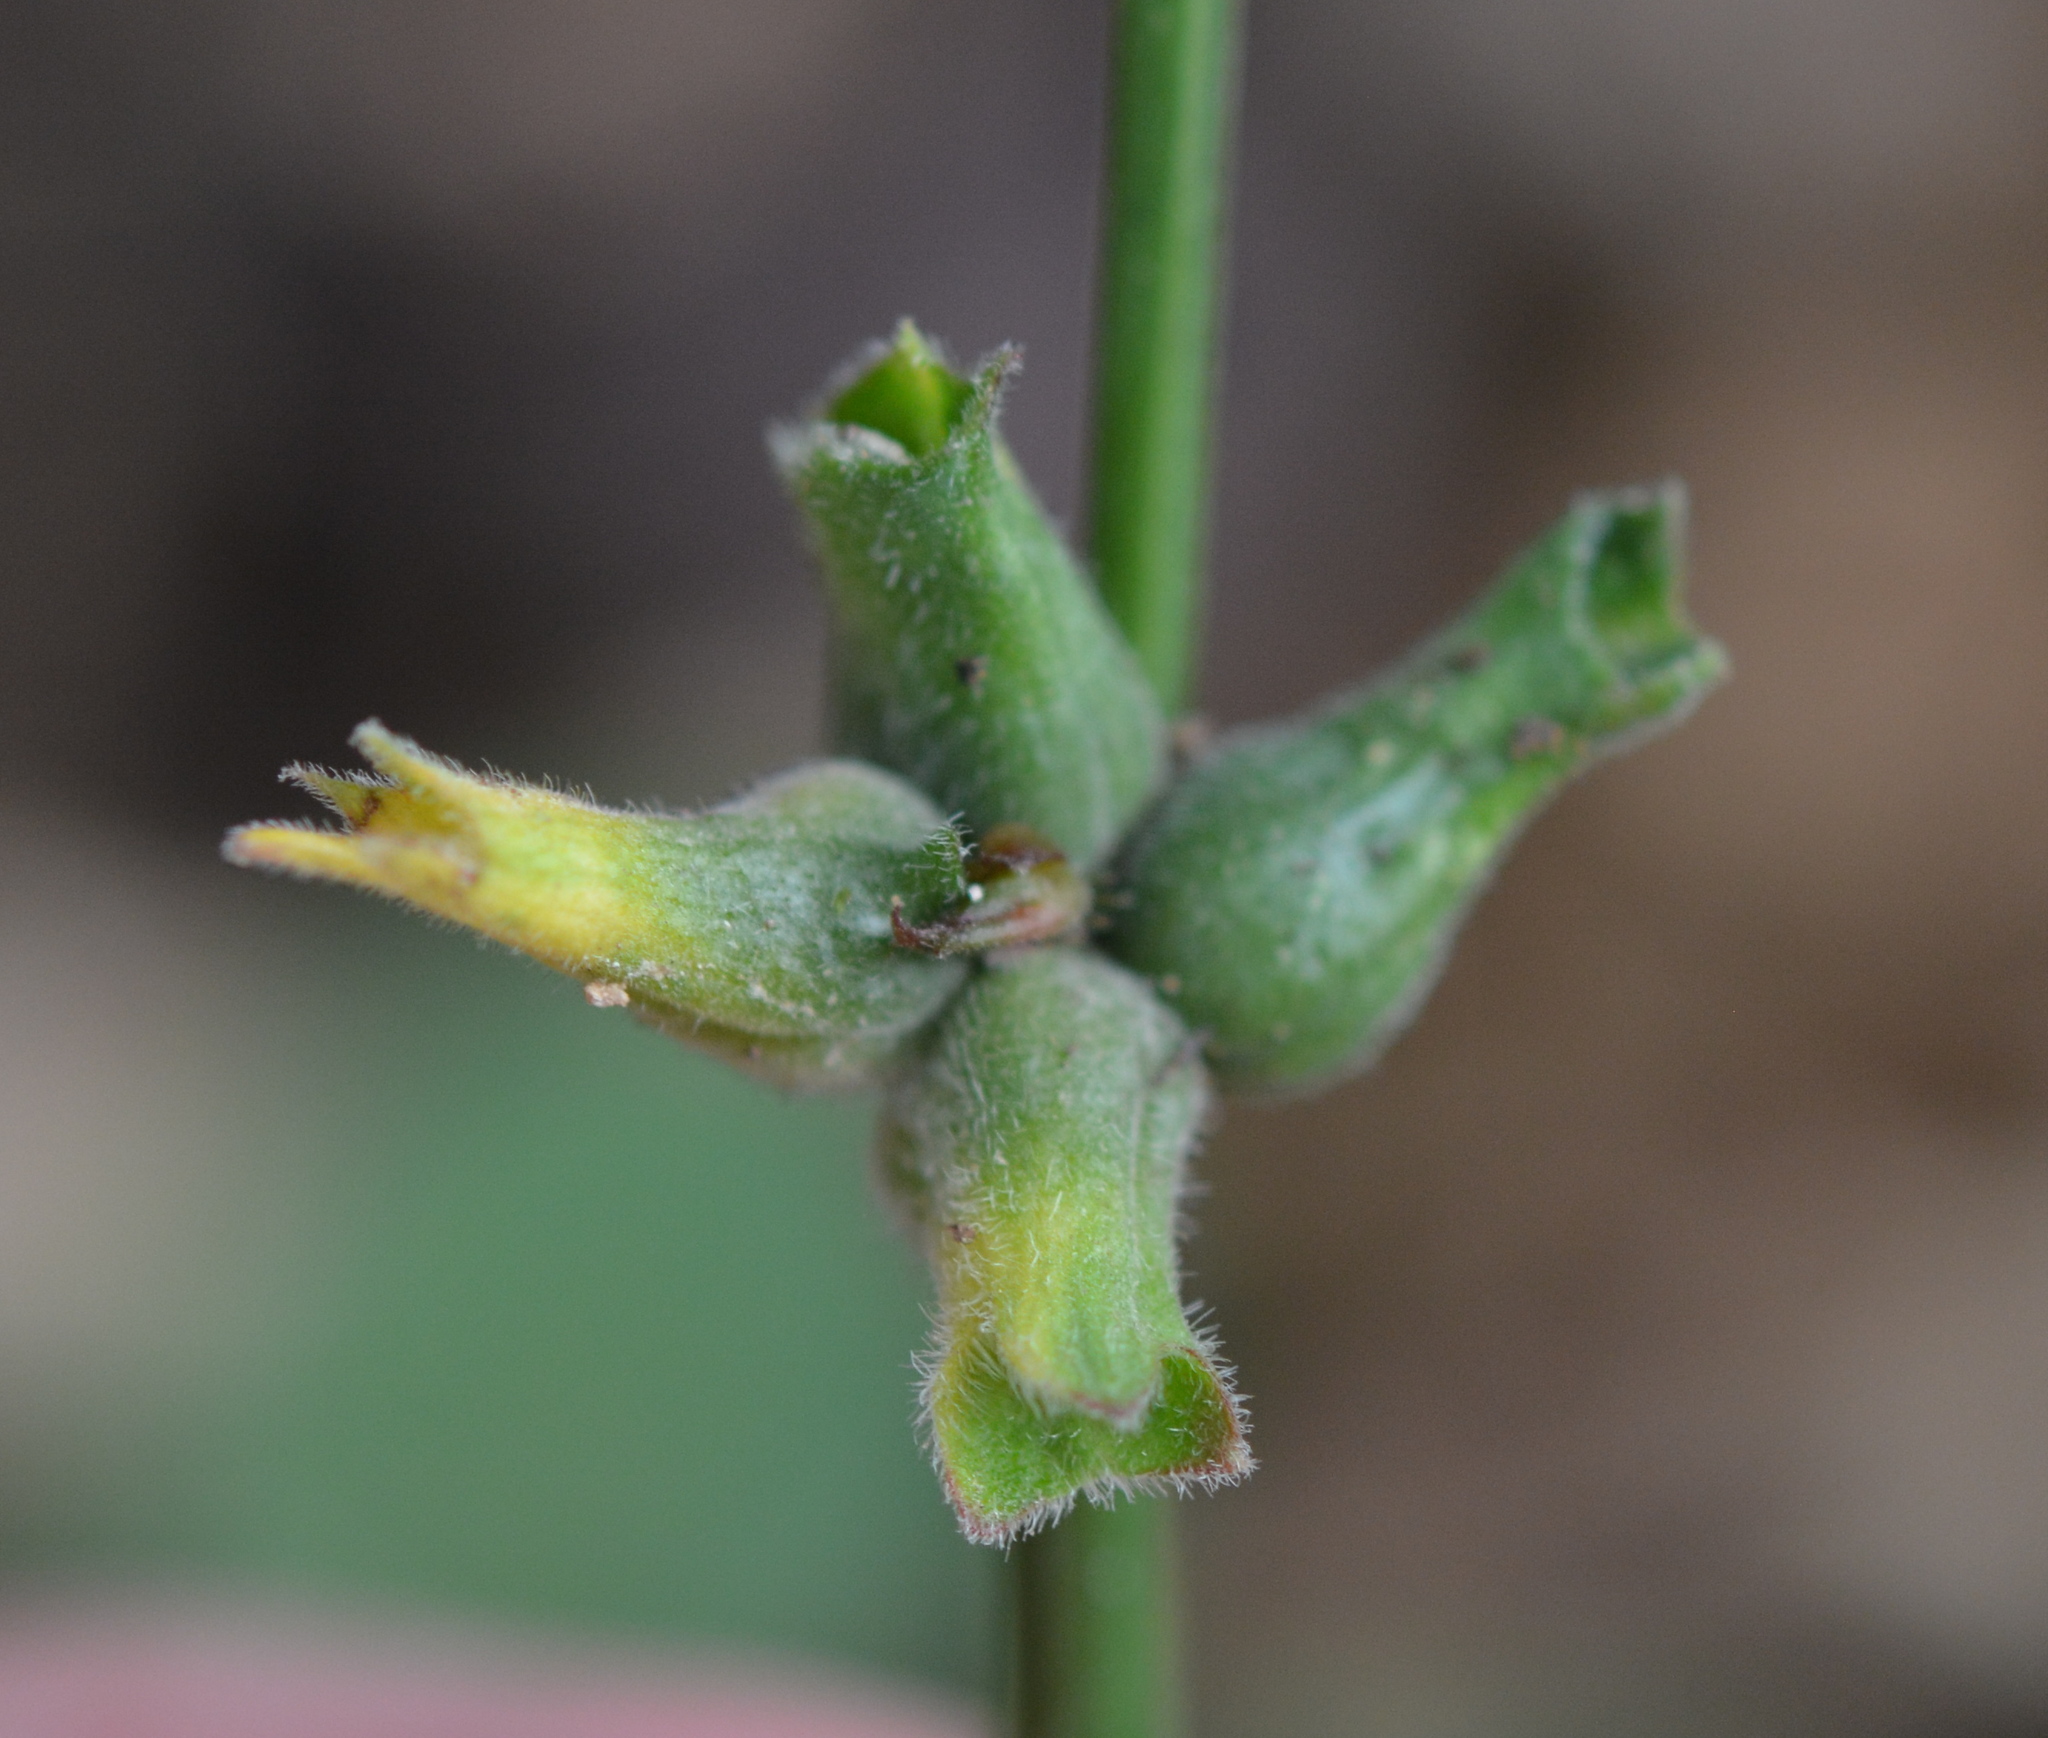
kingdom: Animalia
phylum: Arthropoda
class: Insecta
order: Diptera
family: Cecidomyiidae
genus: Dasineura
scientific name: Dasineura meibomiae
